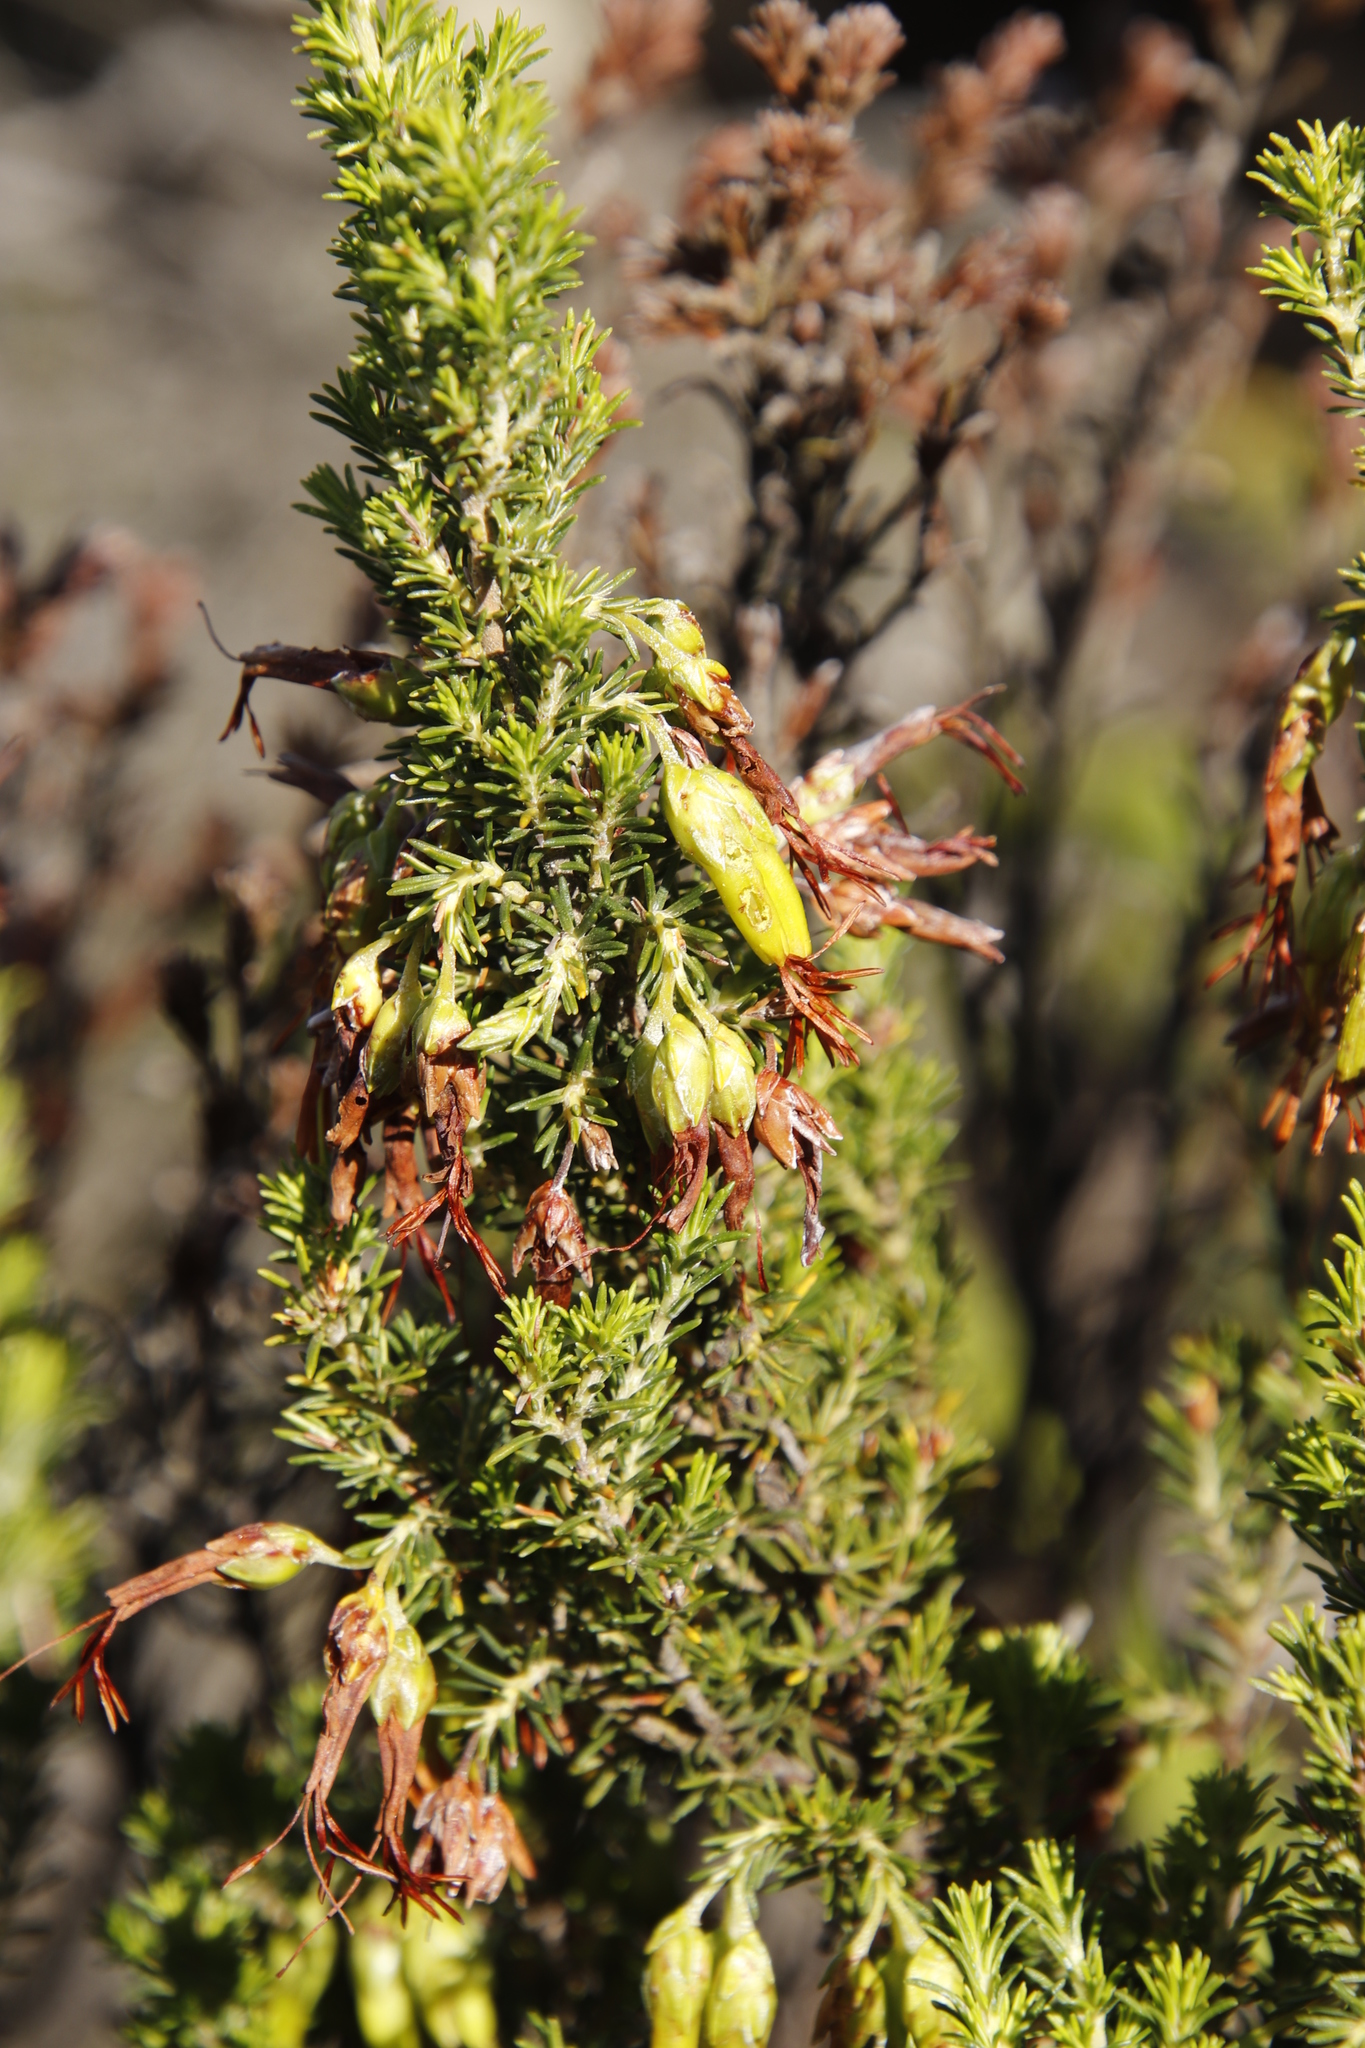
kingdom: Plantae
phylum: Tracheophyta
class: Magnoliopsida
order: Ericales
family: Ericaceae
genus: Erica
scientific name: Erica coccinea
